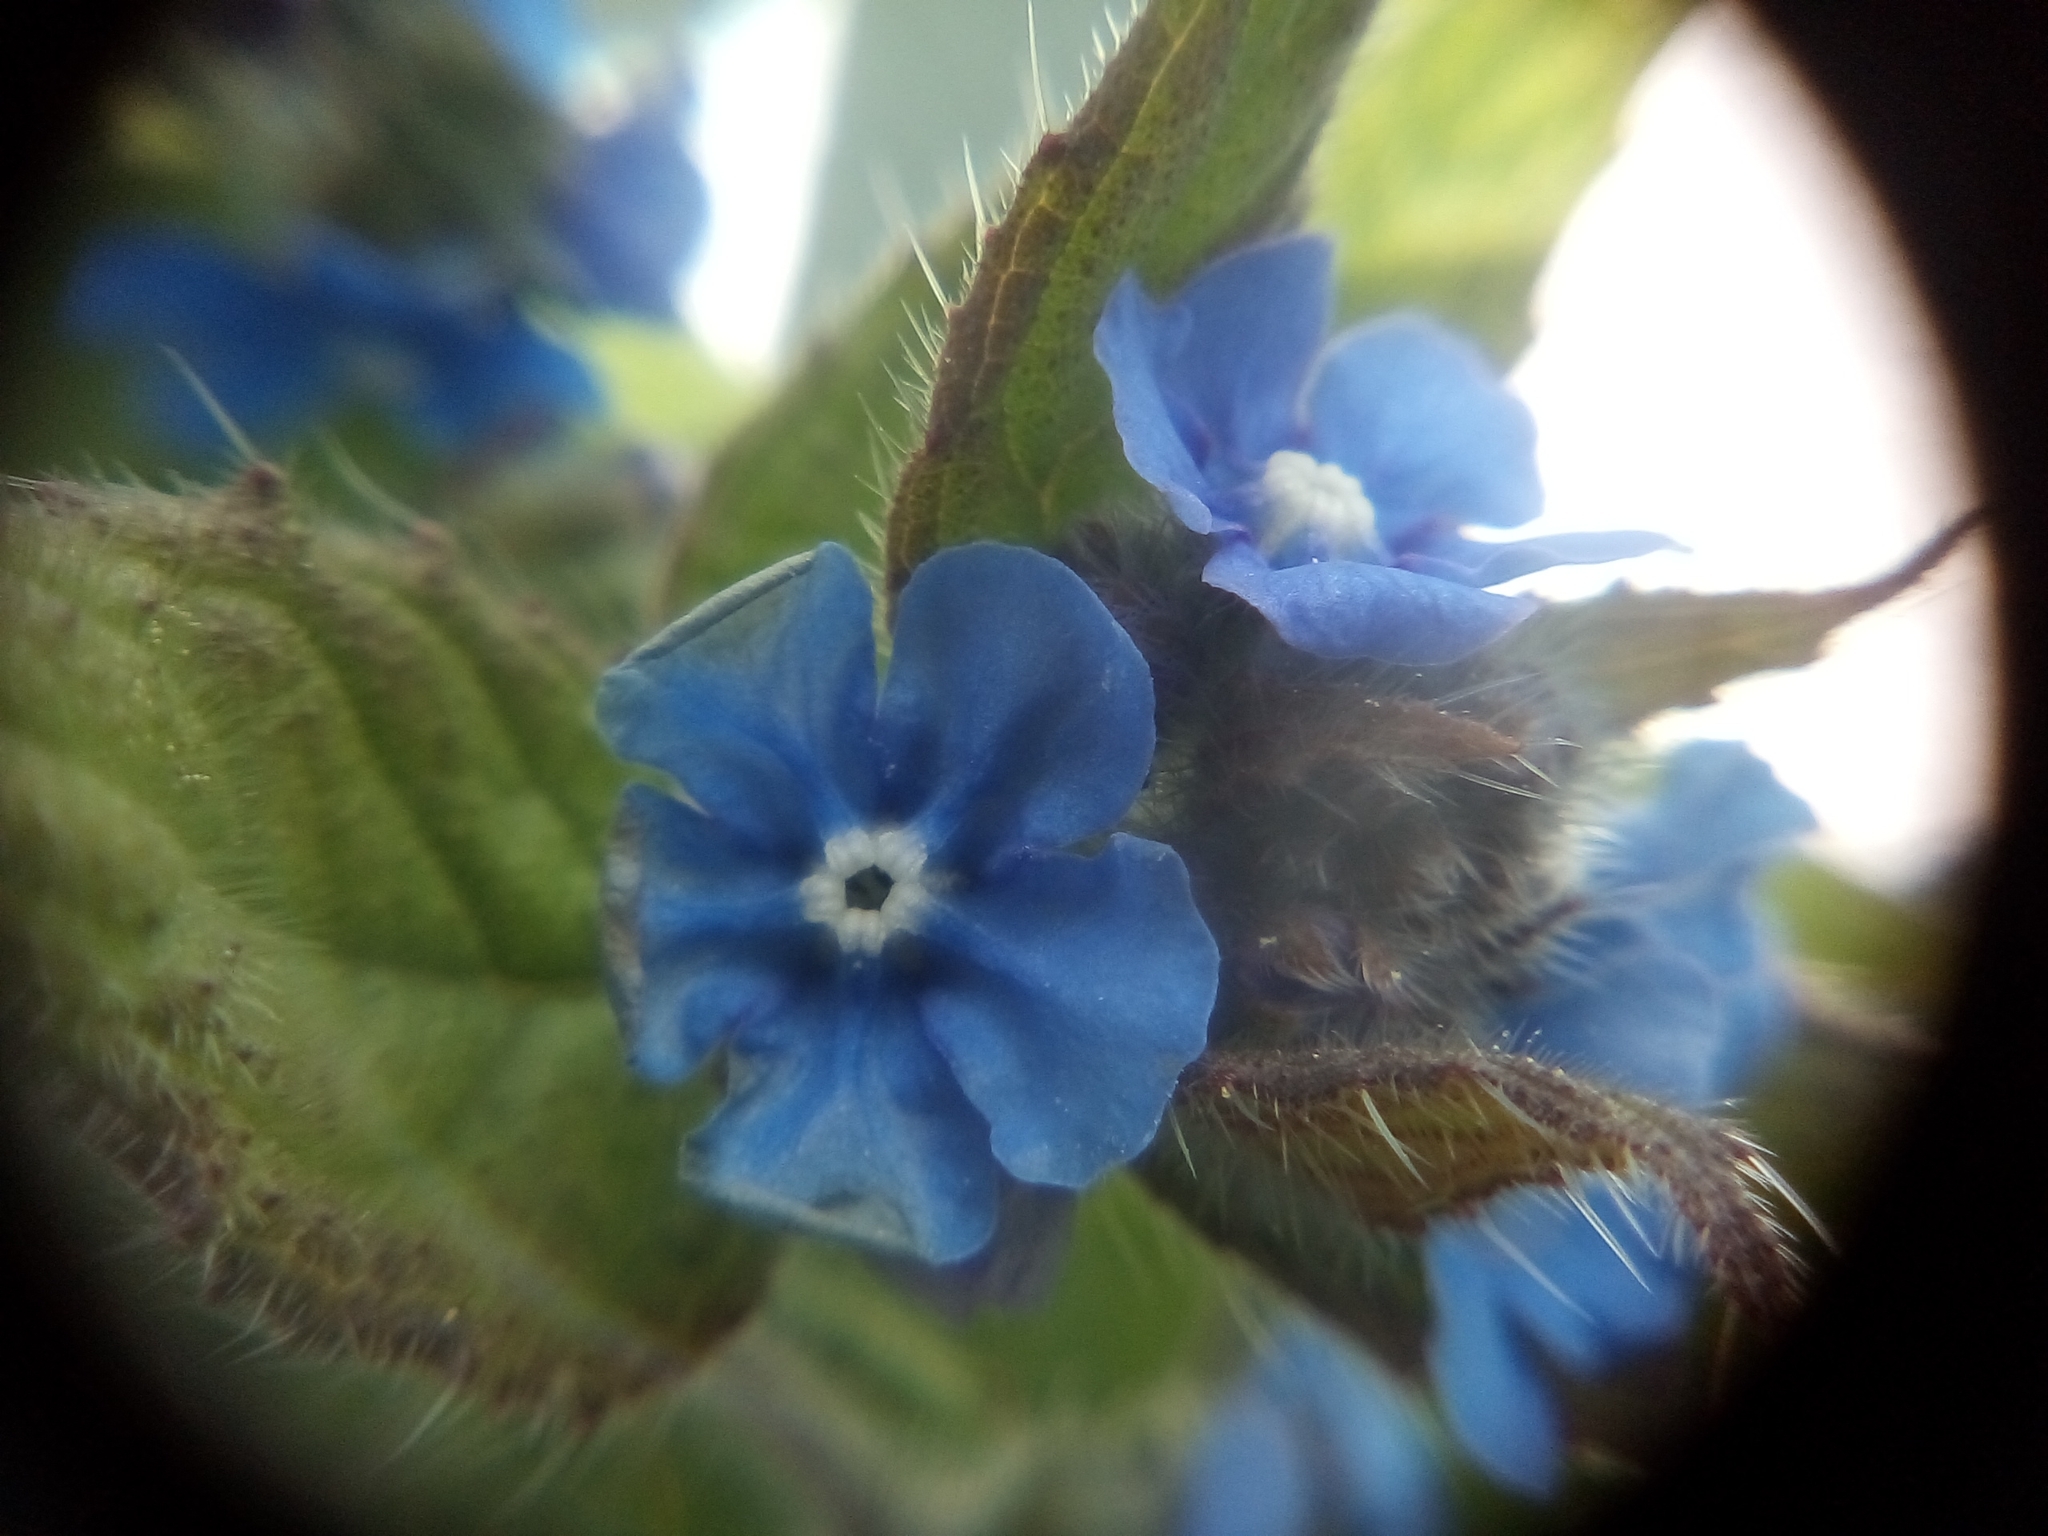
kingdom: Plantae
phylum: Tracheophyta
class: Magnoliopsida
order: Boraginales
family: Boraginaceae
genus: Pentaglottis
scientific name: Pentaglottis sempervirens
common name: Green alkanet
